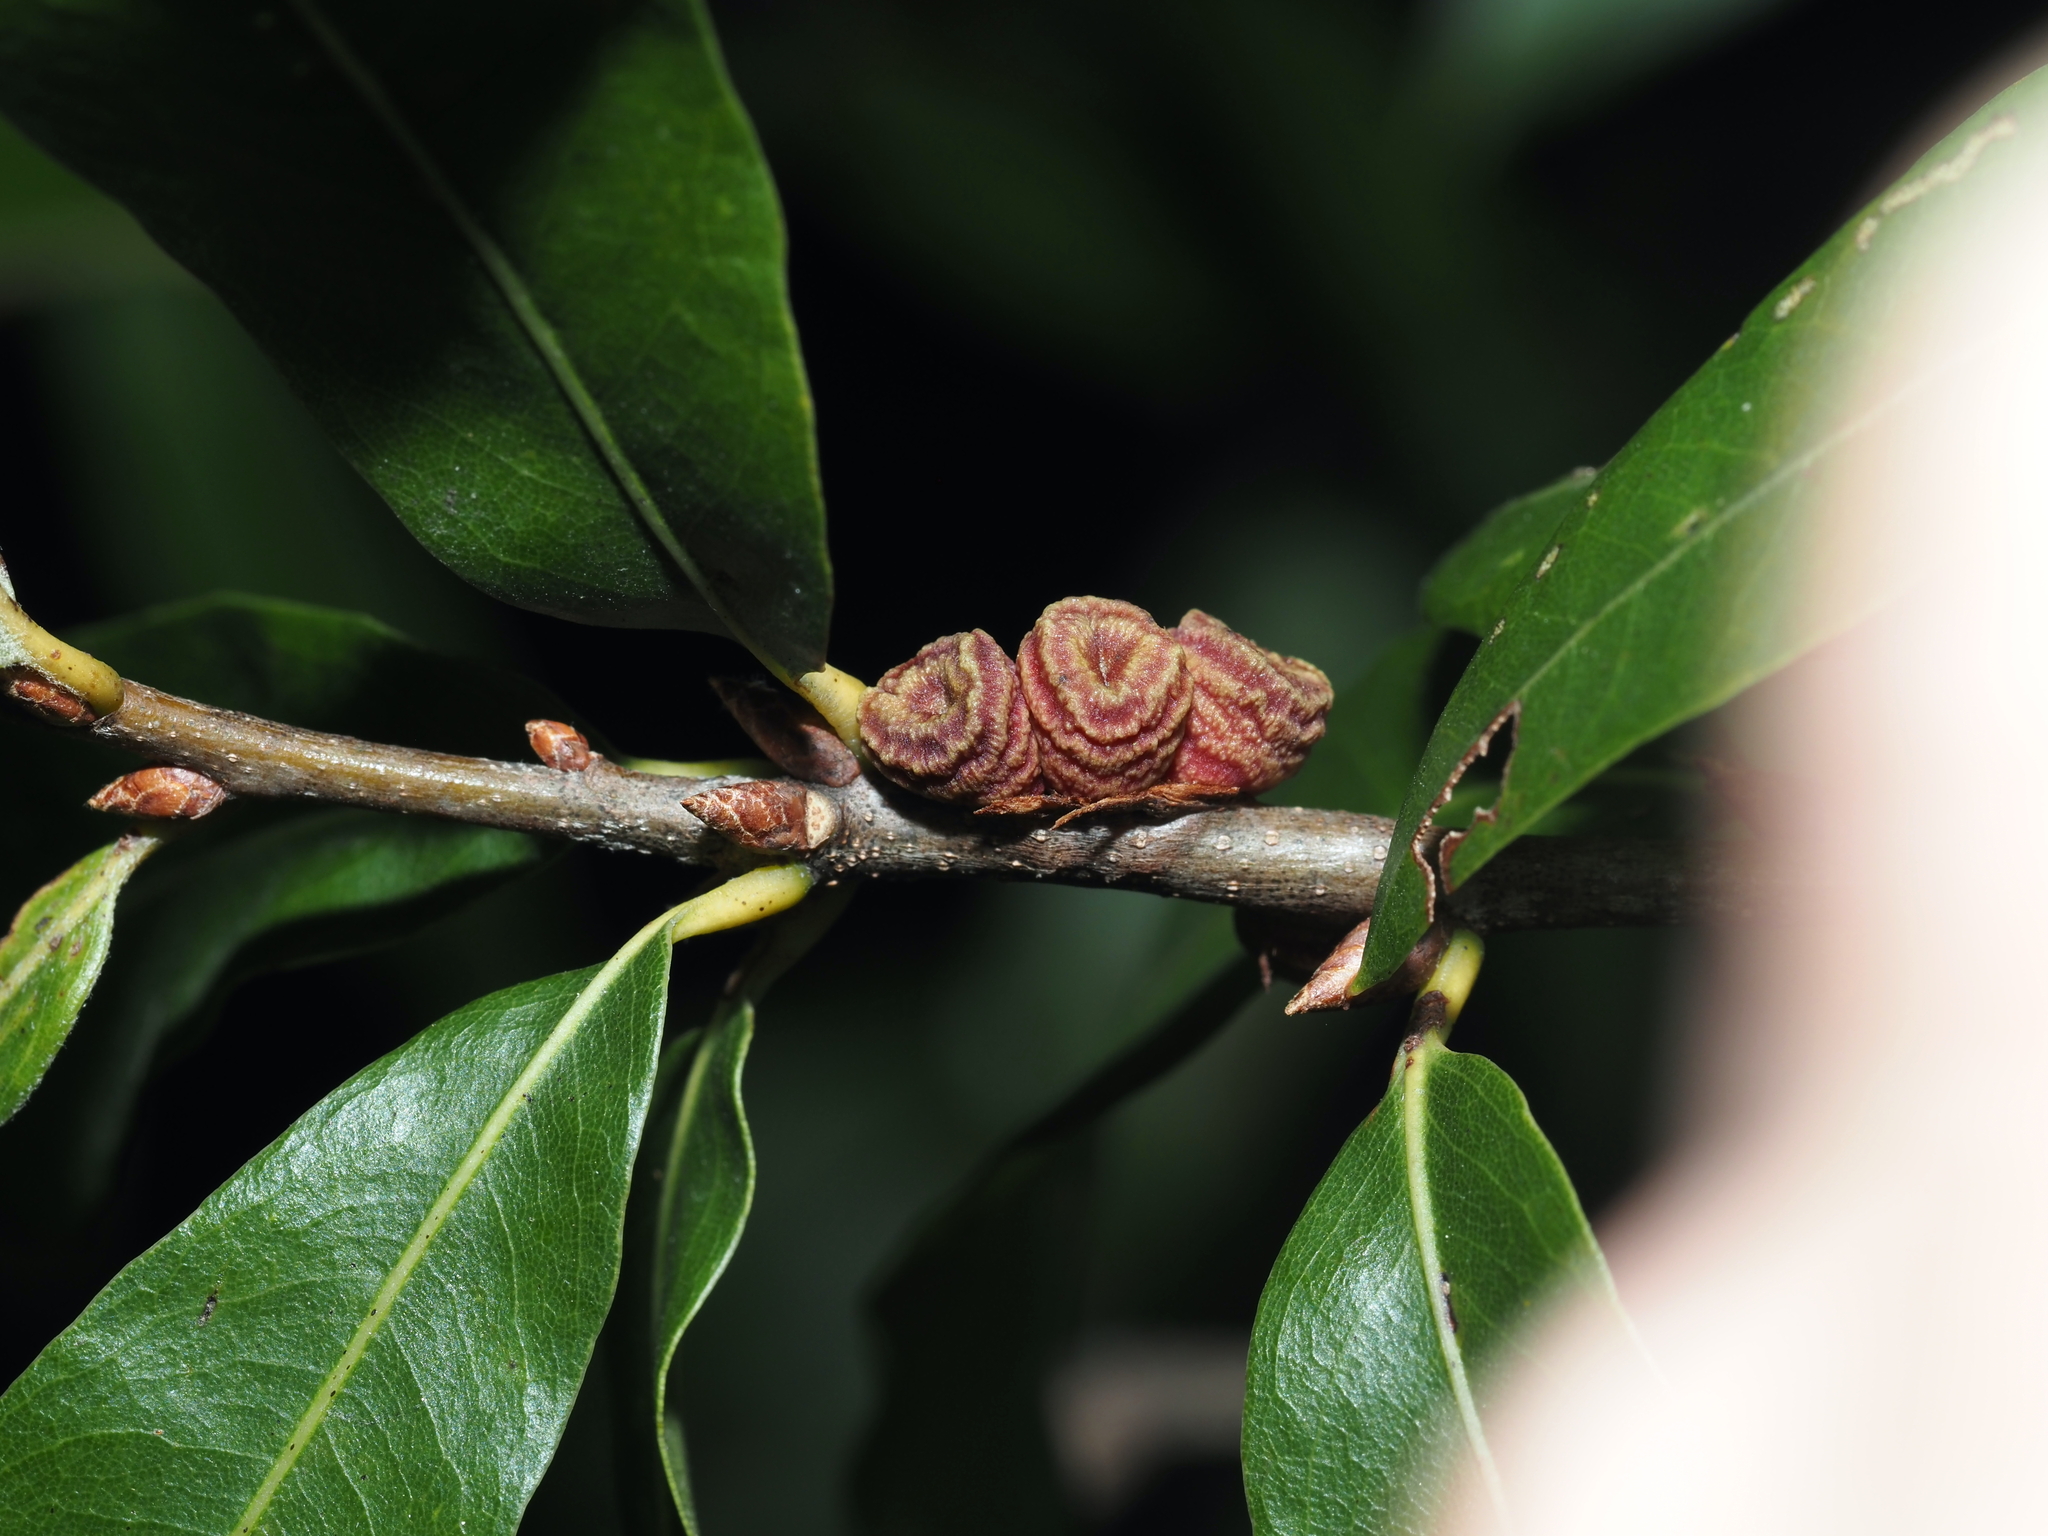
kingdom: Animalia
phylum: Arthropoda
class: Insecta
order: Hymenoptera
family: Cynipidae
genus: Kokkocynips
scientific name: Kokkocynips difficilis
